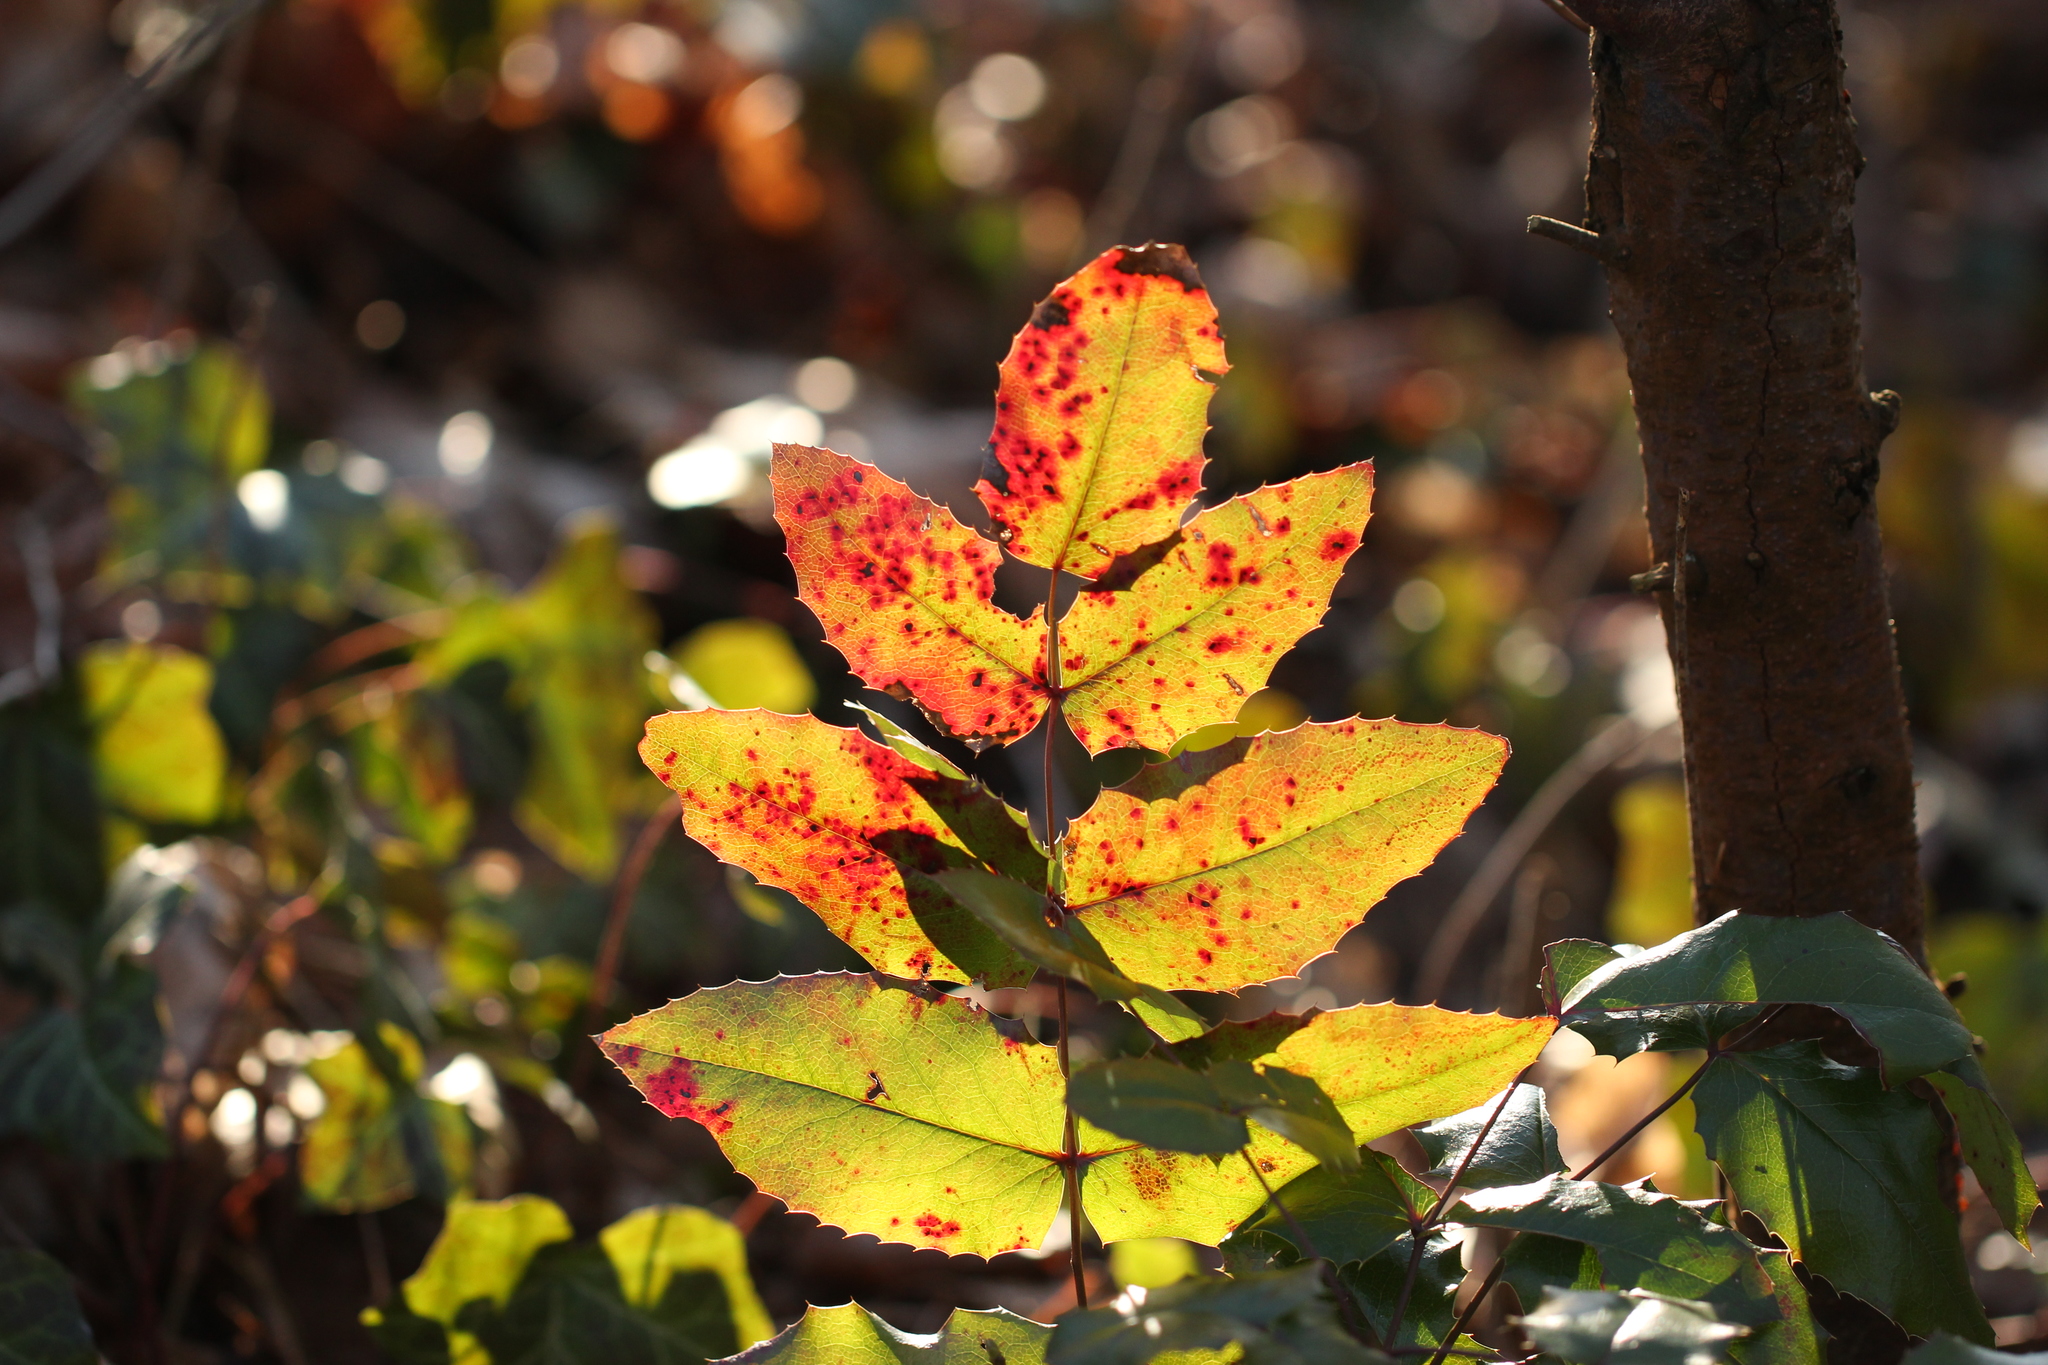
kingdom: Plantae
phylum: Tracheophyta
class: Magnoliopsida
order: Ranunculales
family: Berberidaceae
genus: Mahonia
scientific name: Mahonia aquifolium
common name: Oregon-grape
